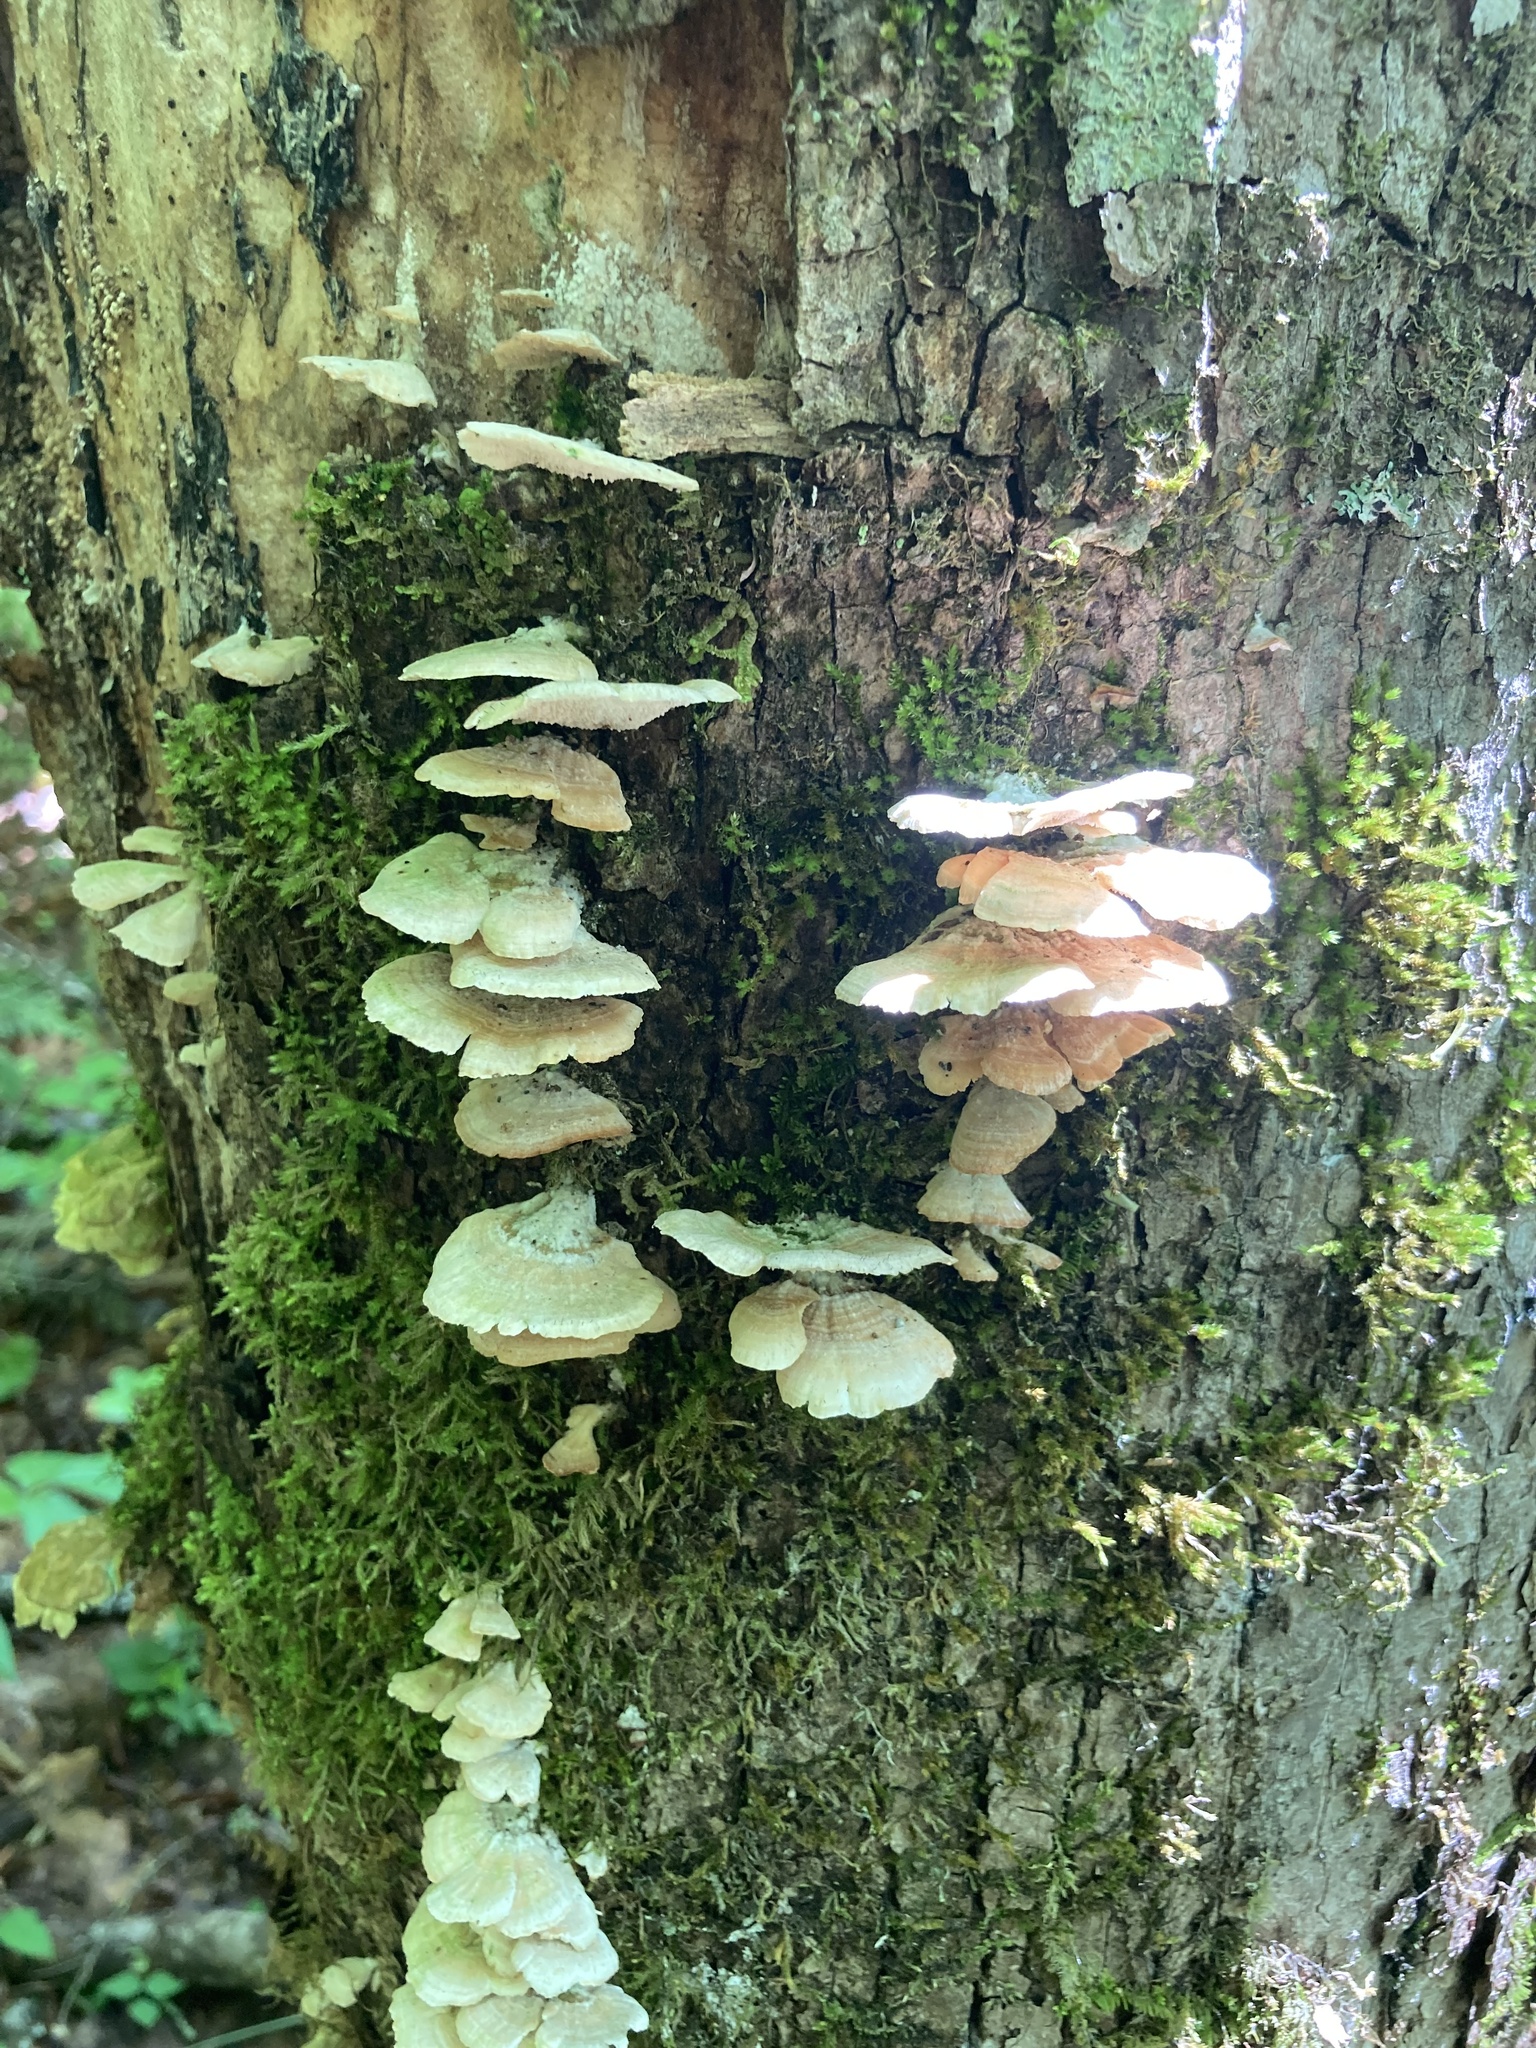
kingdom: Fungi
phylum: Basidiomycota
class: Agaricomycetes
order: Hymenochaetales
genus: Trichaptum
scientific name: Trichaptum biforme
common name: Violet-toothed polypore
